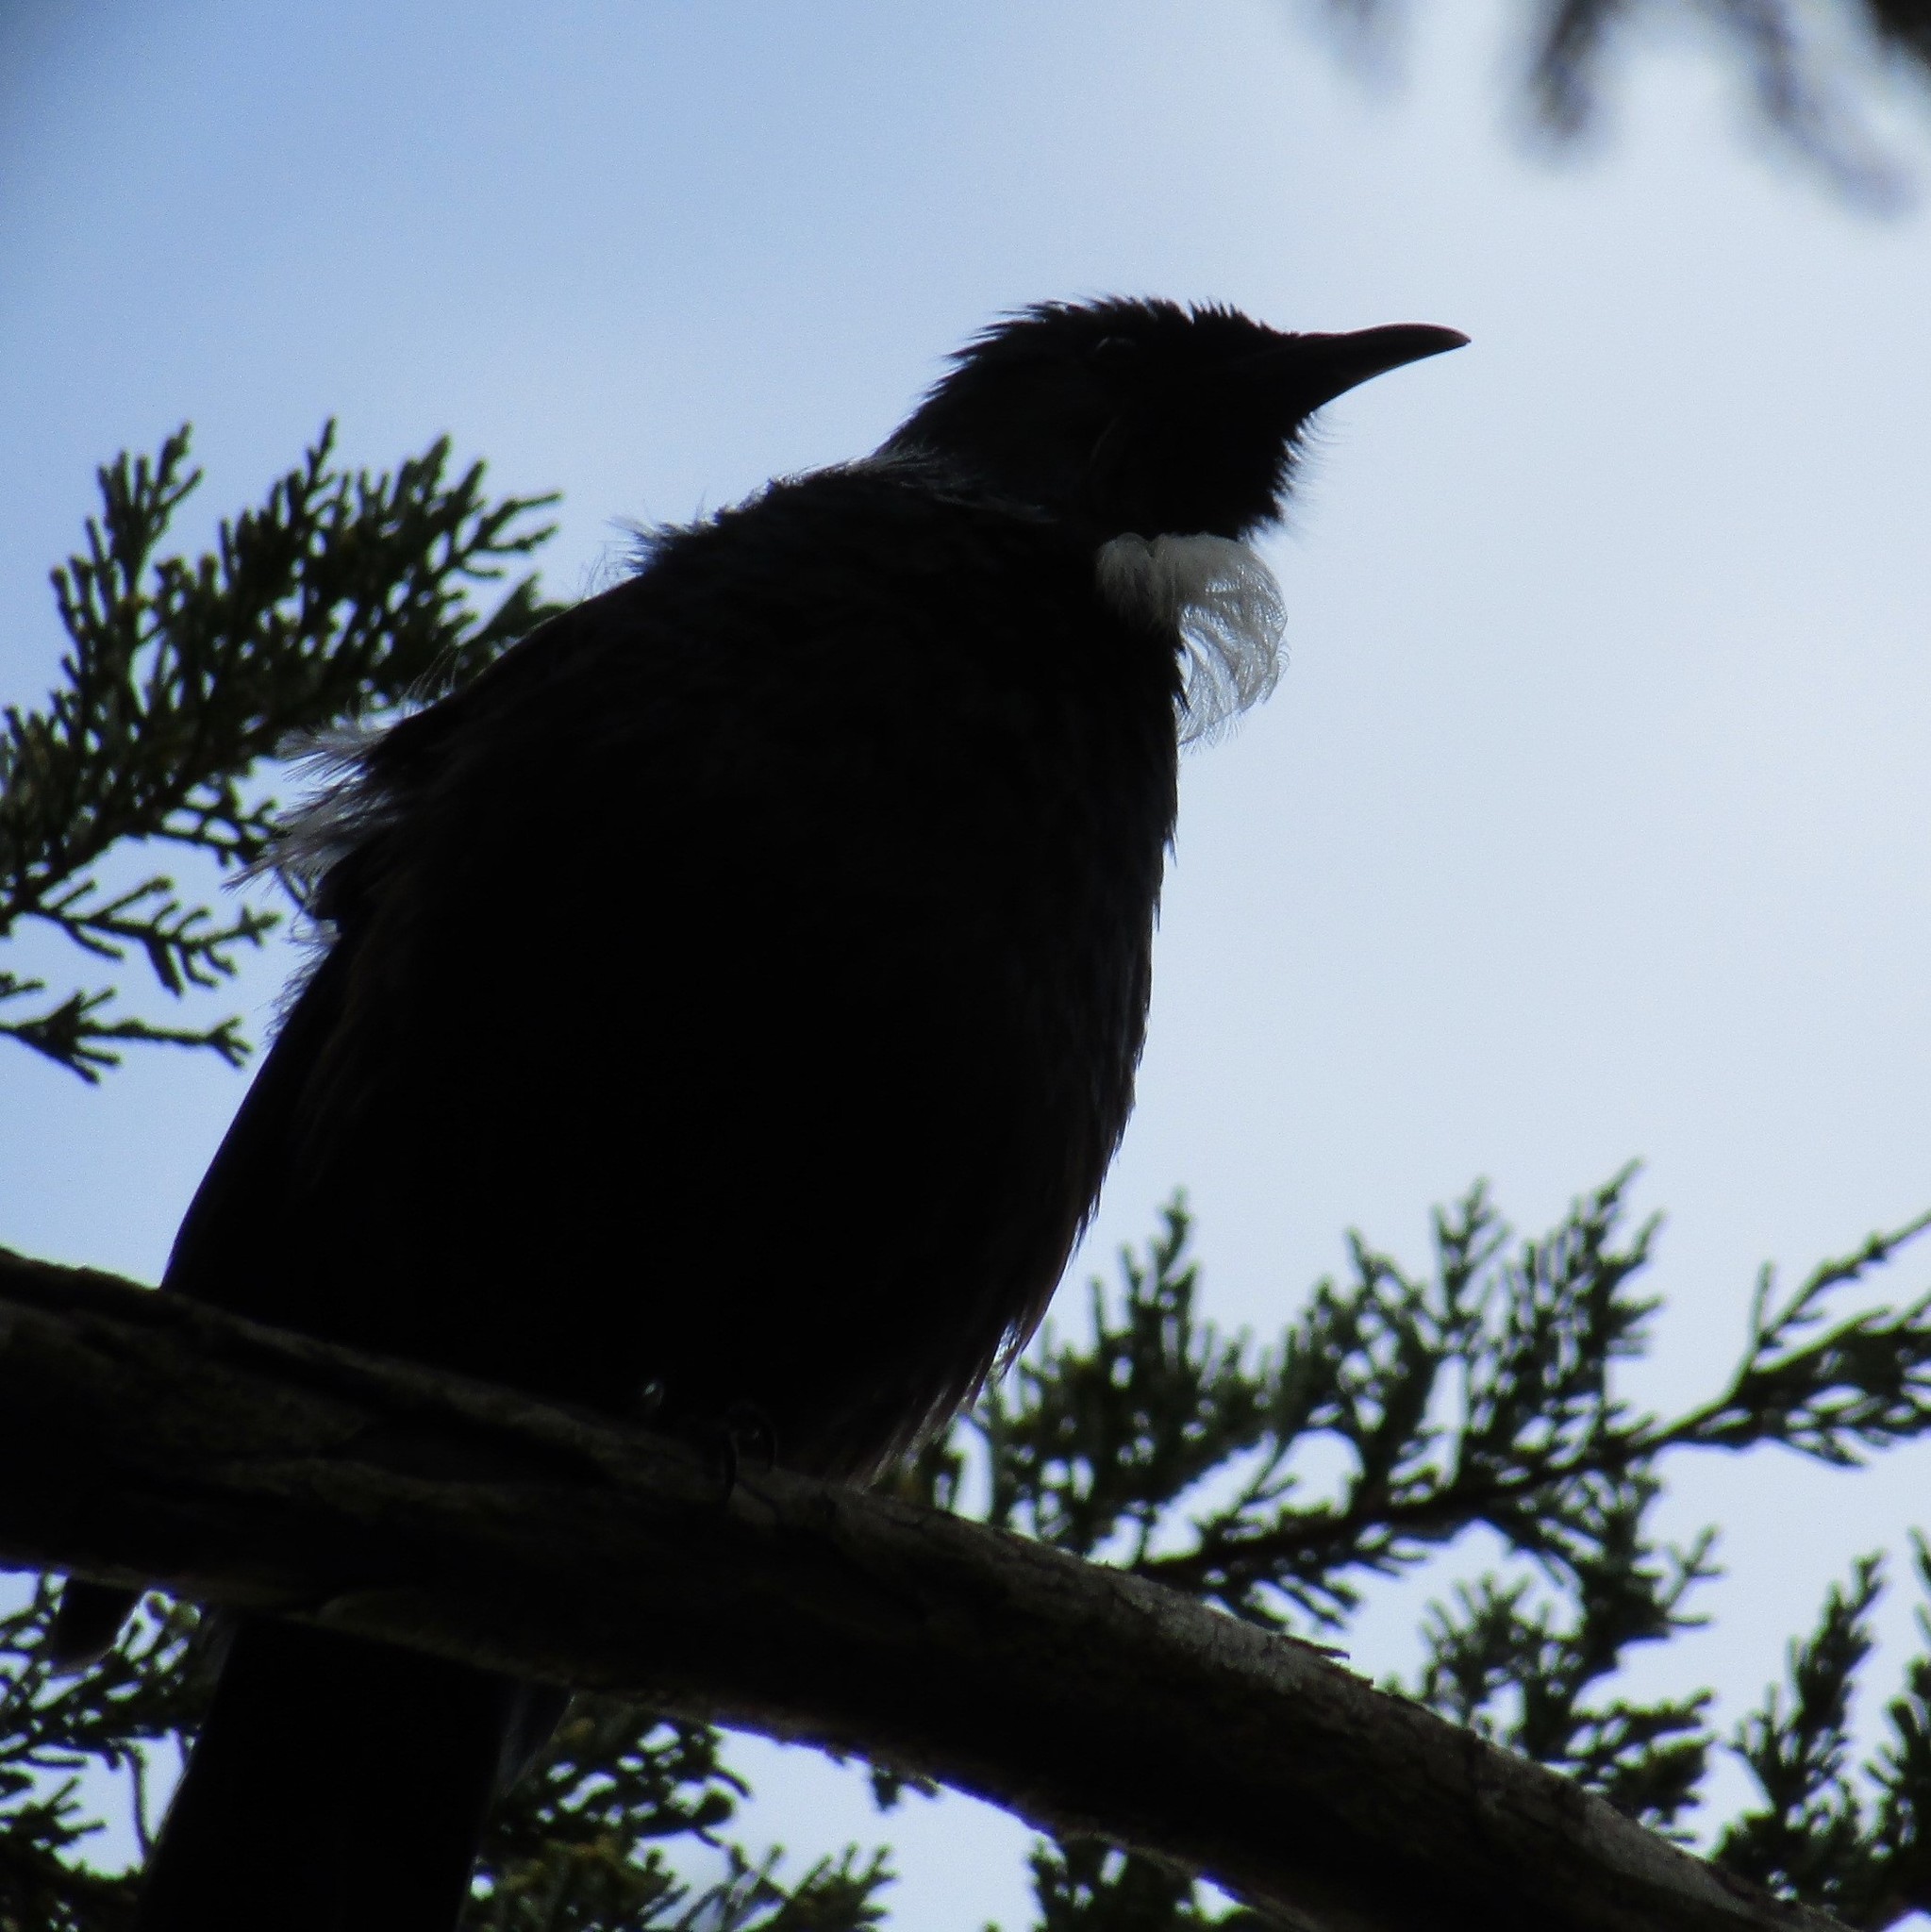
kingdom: Animalia
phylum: Chordata
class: Aves
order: Passeriformes
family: Meliphagidae
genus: Prosthemadera
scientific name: Prosthemadera novaeseelandiae
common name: Tui
